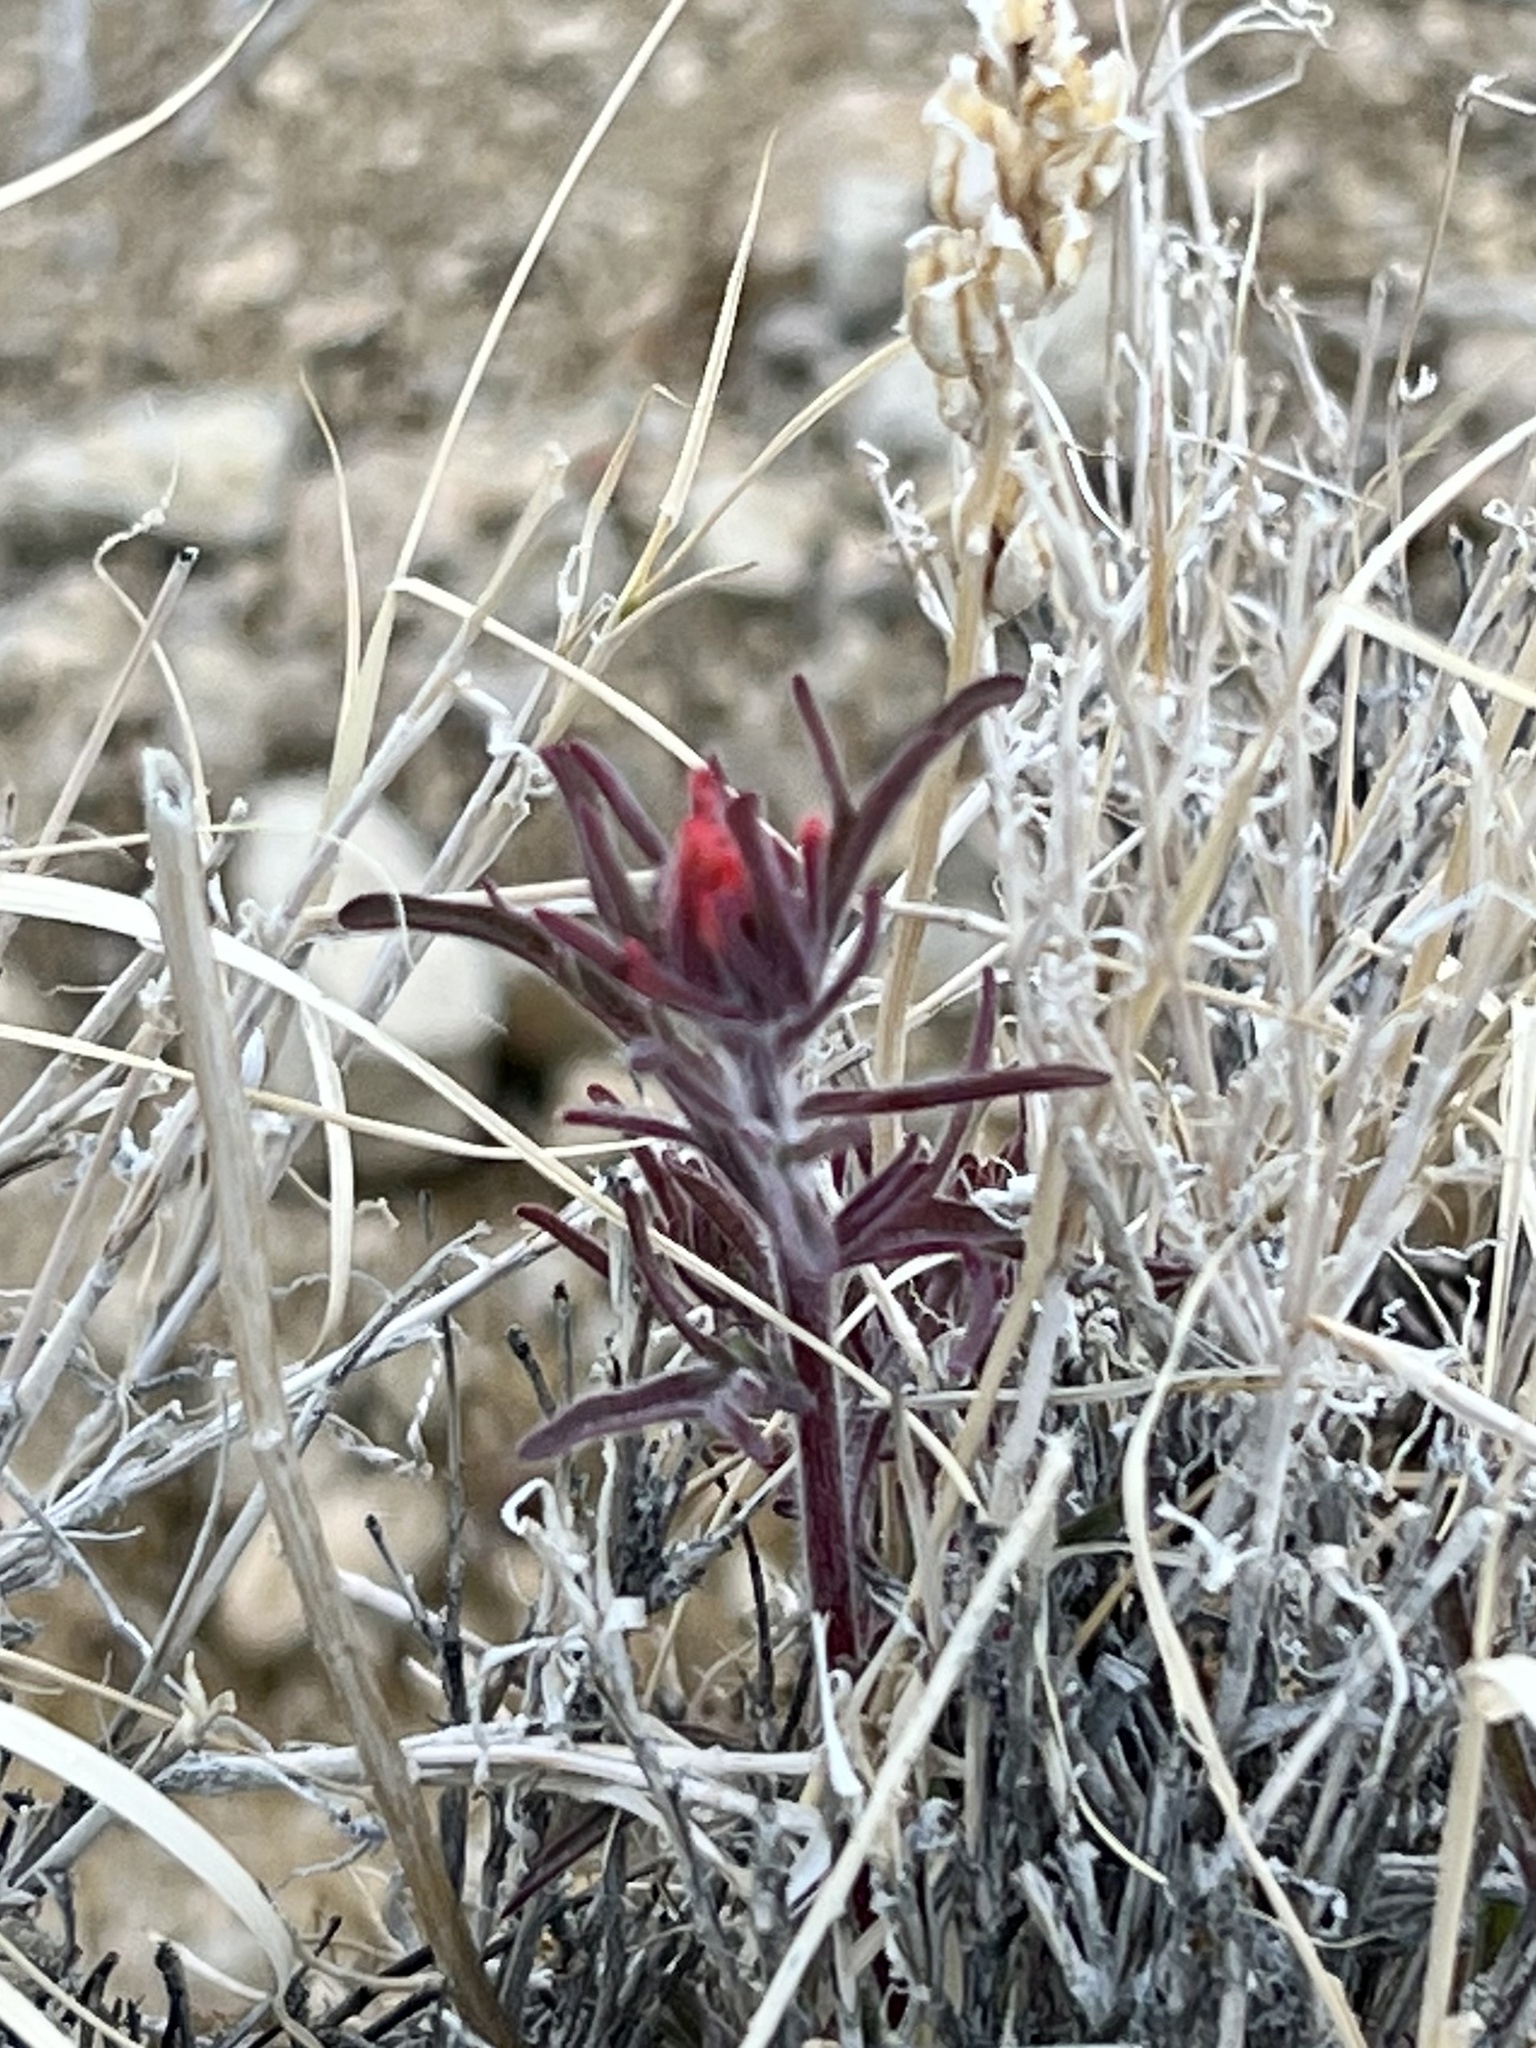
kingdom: Plantae
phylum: Tracheophyta
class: Magnoliopsida
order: Lamiales
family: Orobanchaceae
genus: Castilleja
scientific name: Castilleja chromosa
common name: Desert paintbrush
